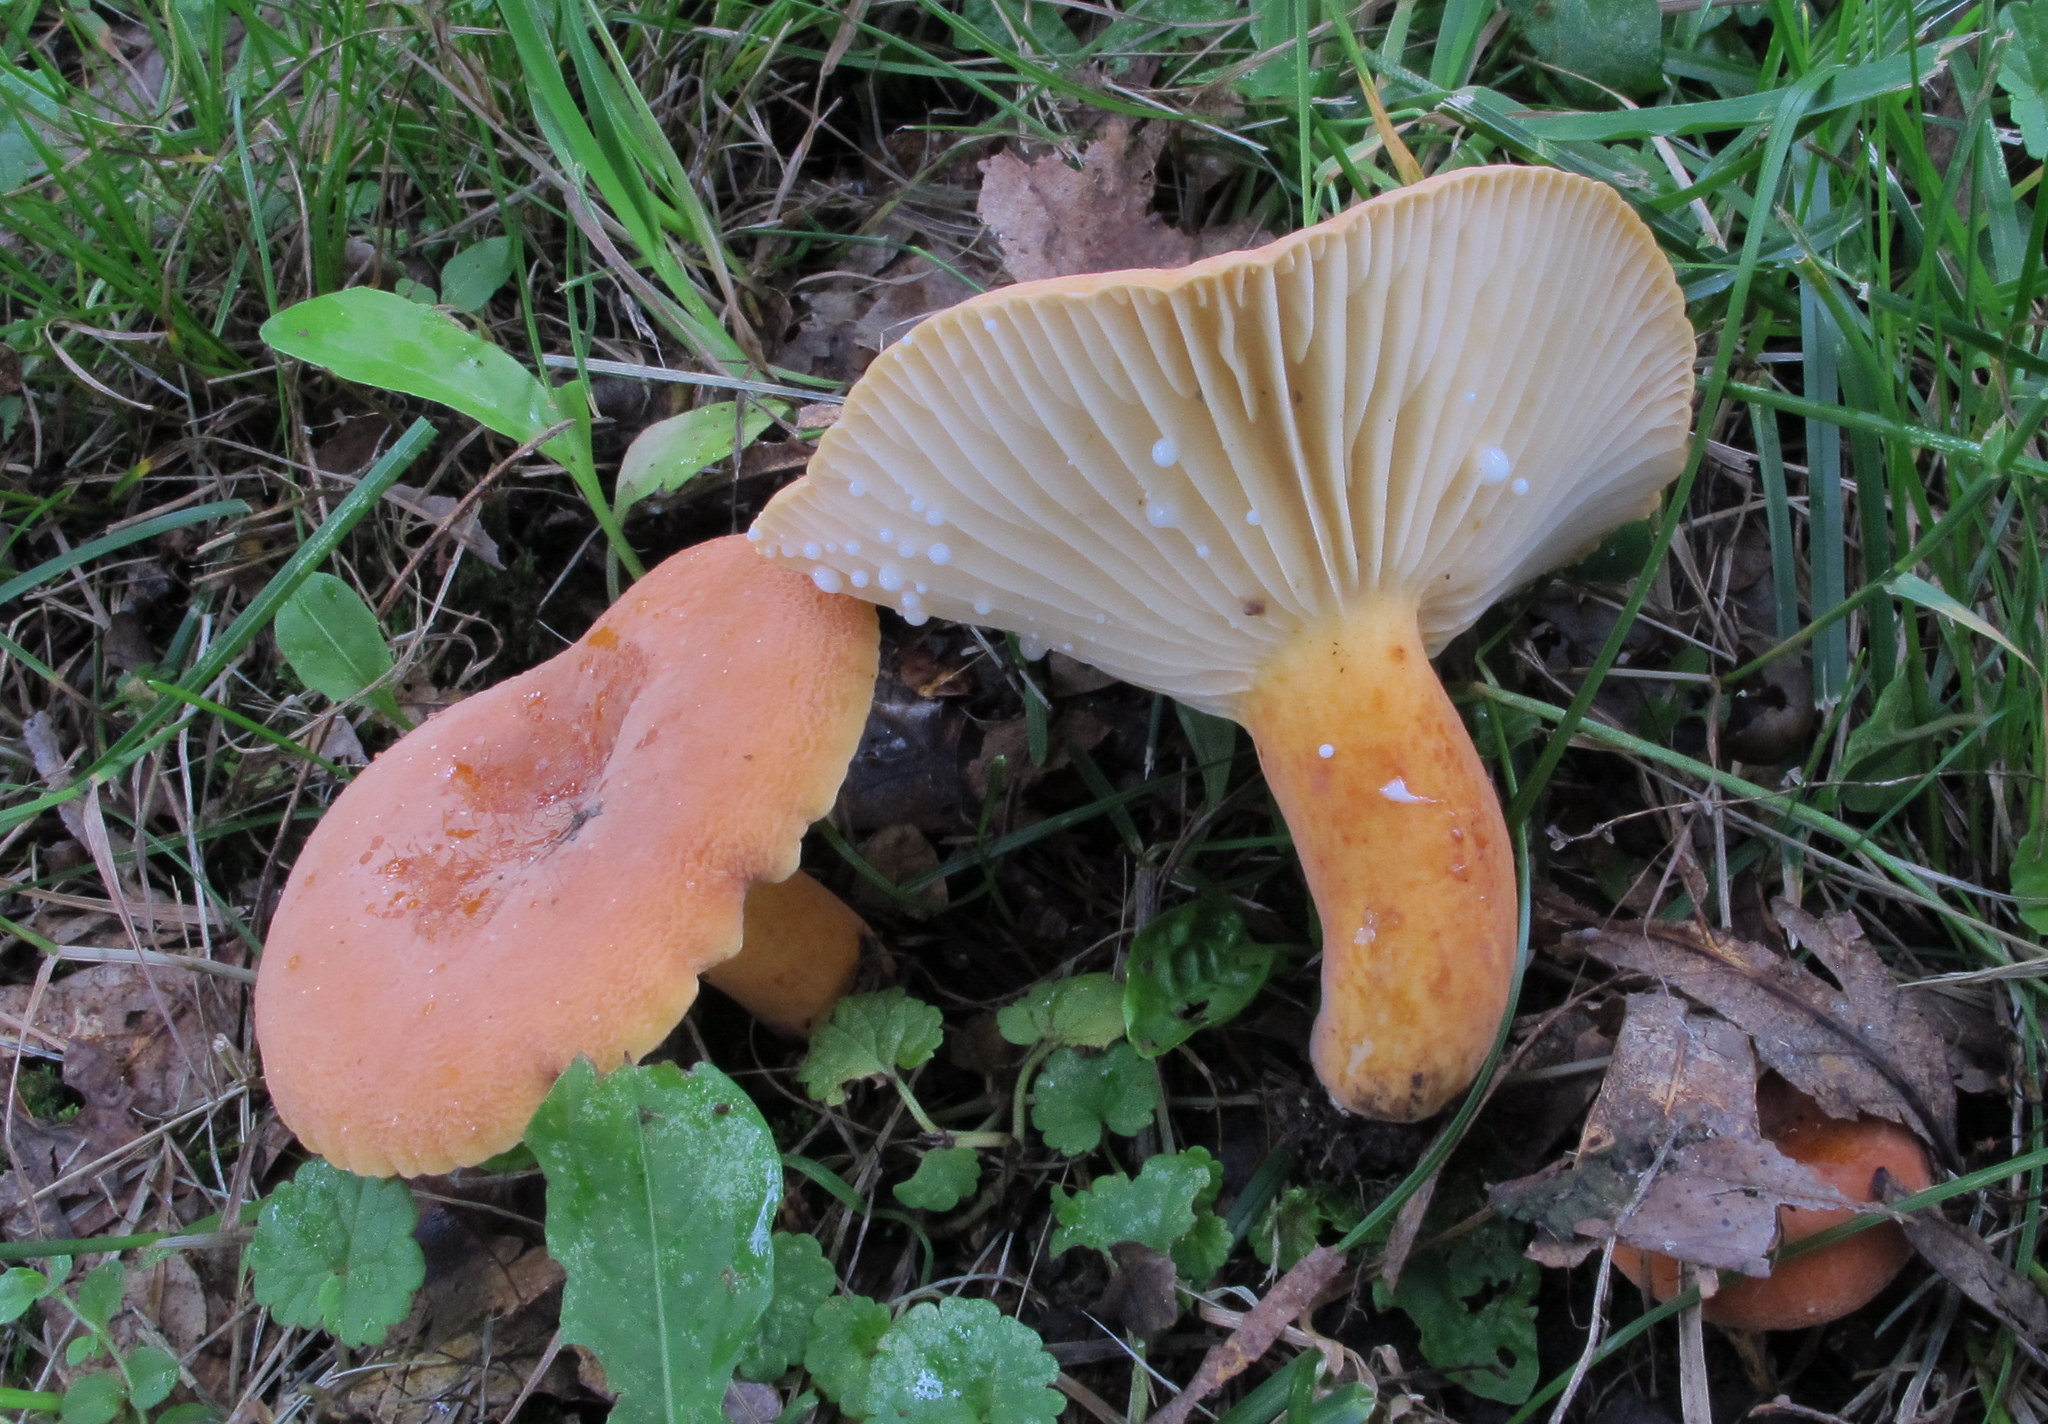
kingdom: Fungi
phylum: Basidiomycota
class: Agaricomycetes
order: Russulales
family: Russulaceae
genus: Lactarius
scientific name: Lactarius hygrophoroides
